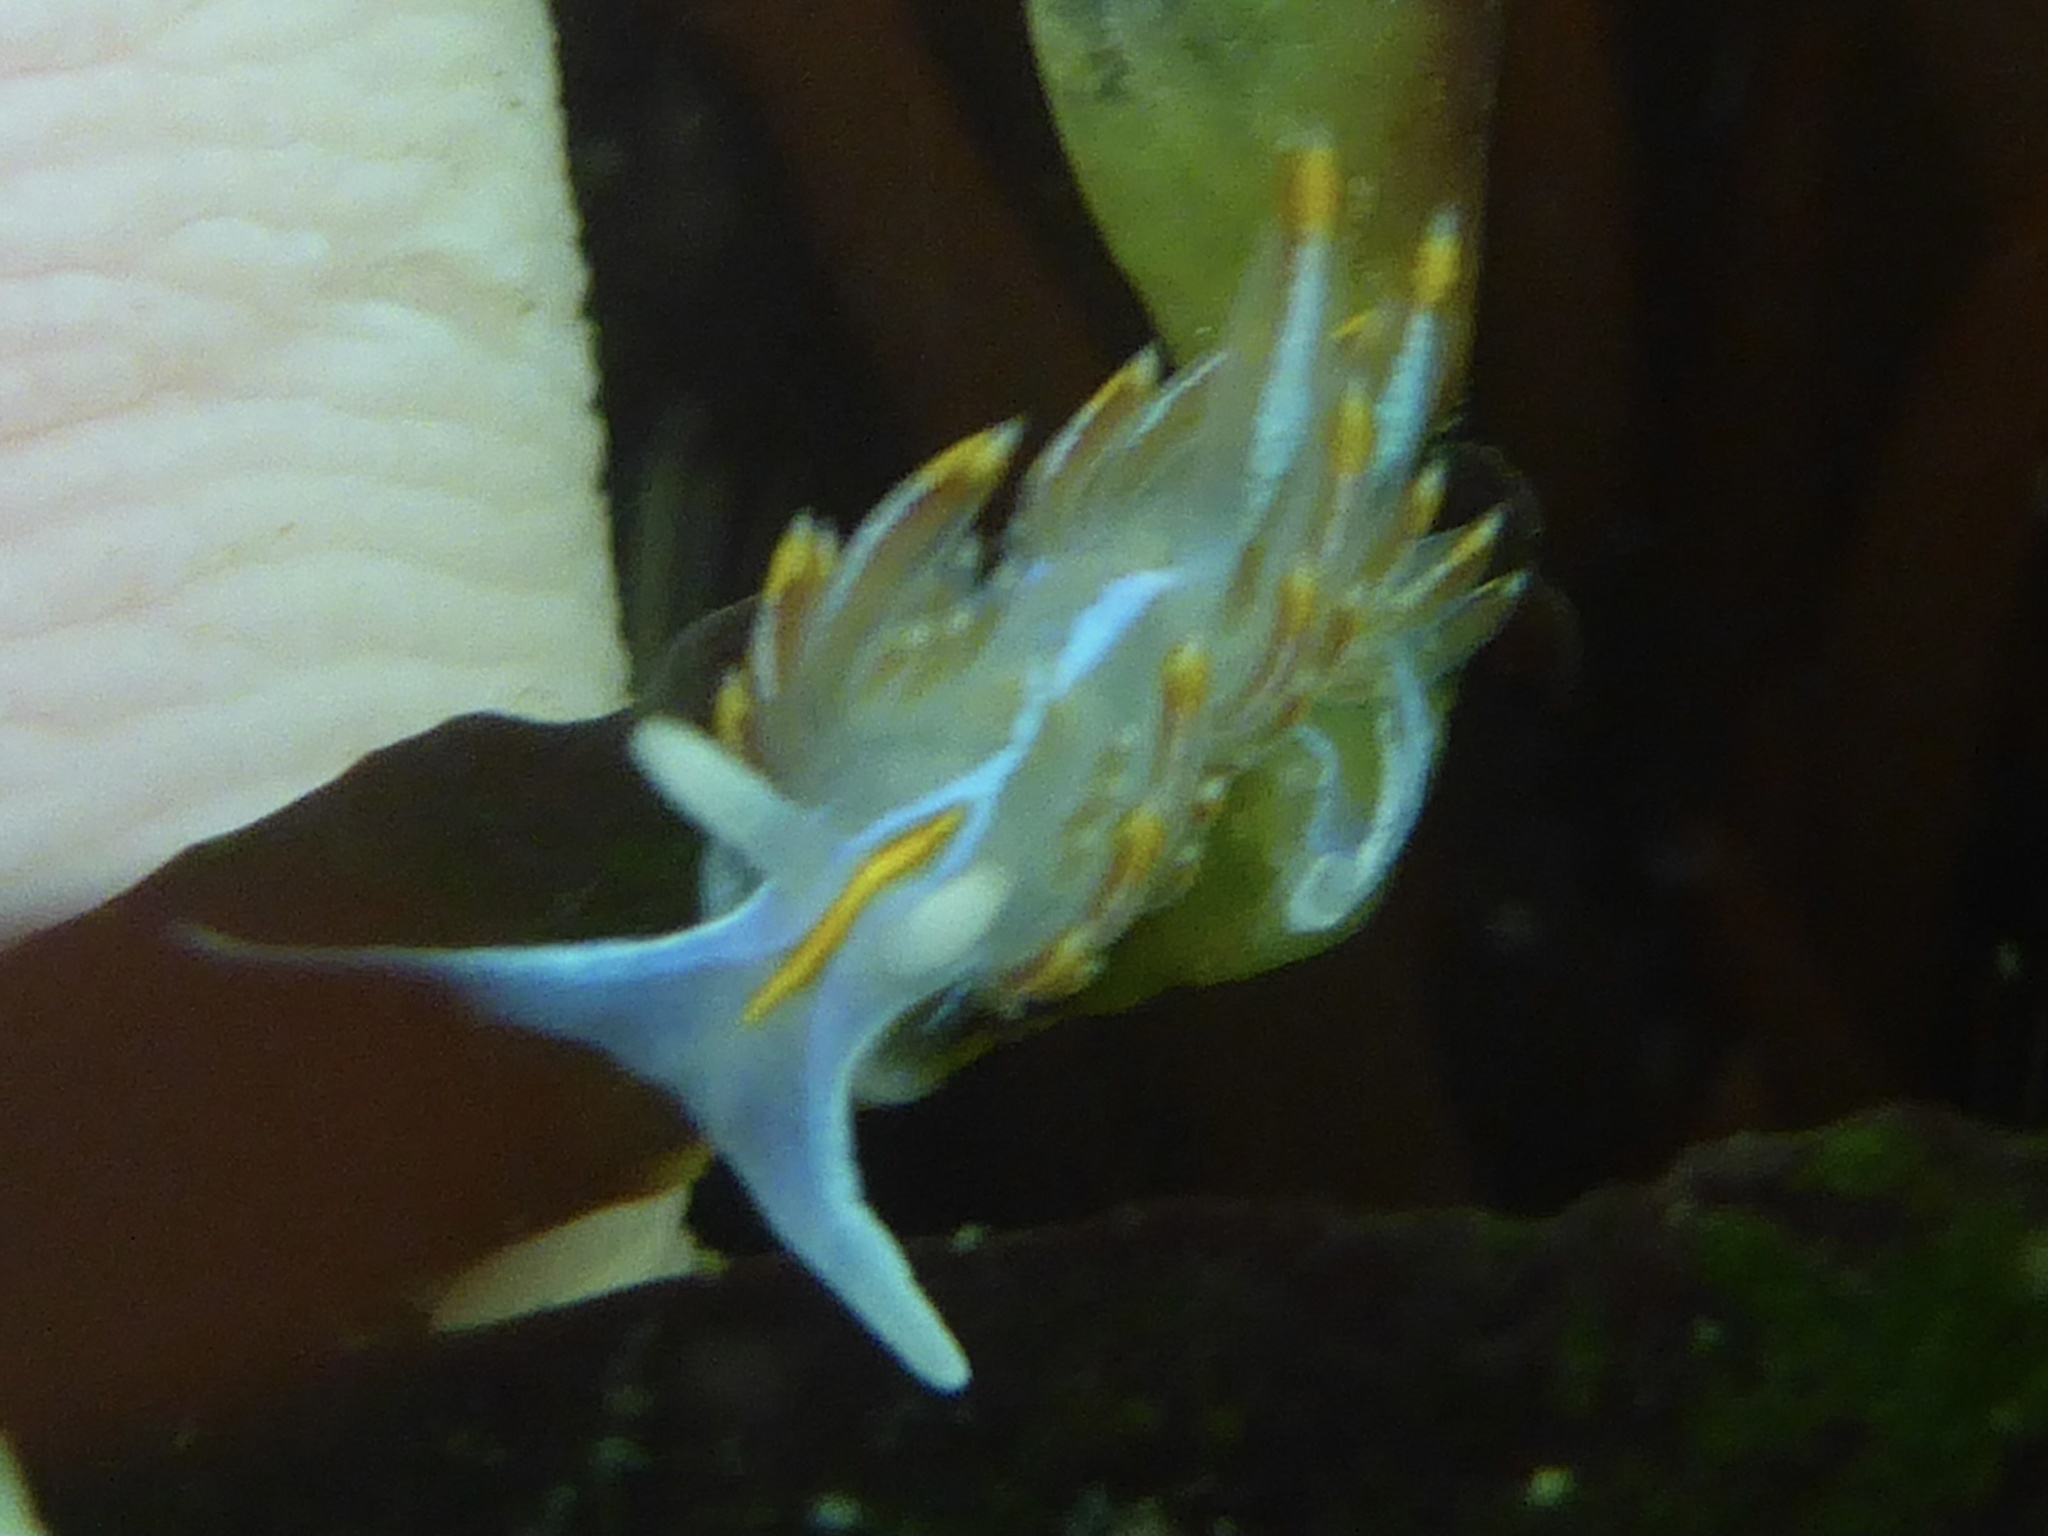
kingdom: Animalia
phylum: Mollusca
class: Gastropoda
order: Nudibranchia
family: Myrrhinidae
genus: Hermissenda
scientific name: Hermissenda crassicornis
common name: Hermissenda
